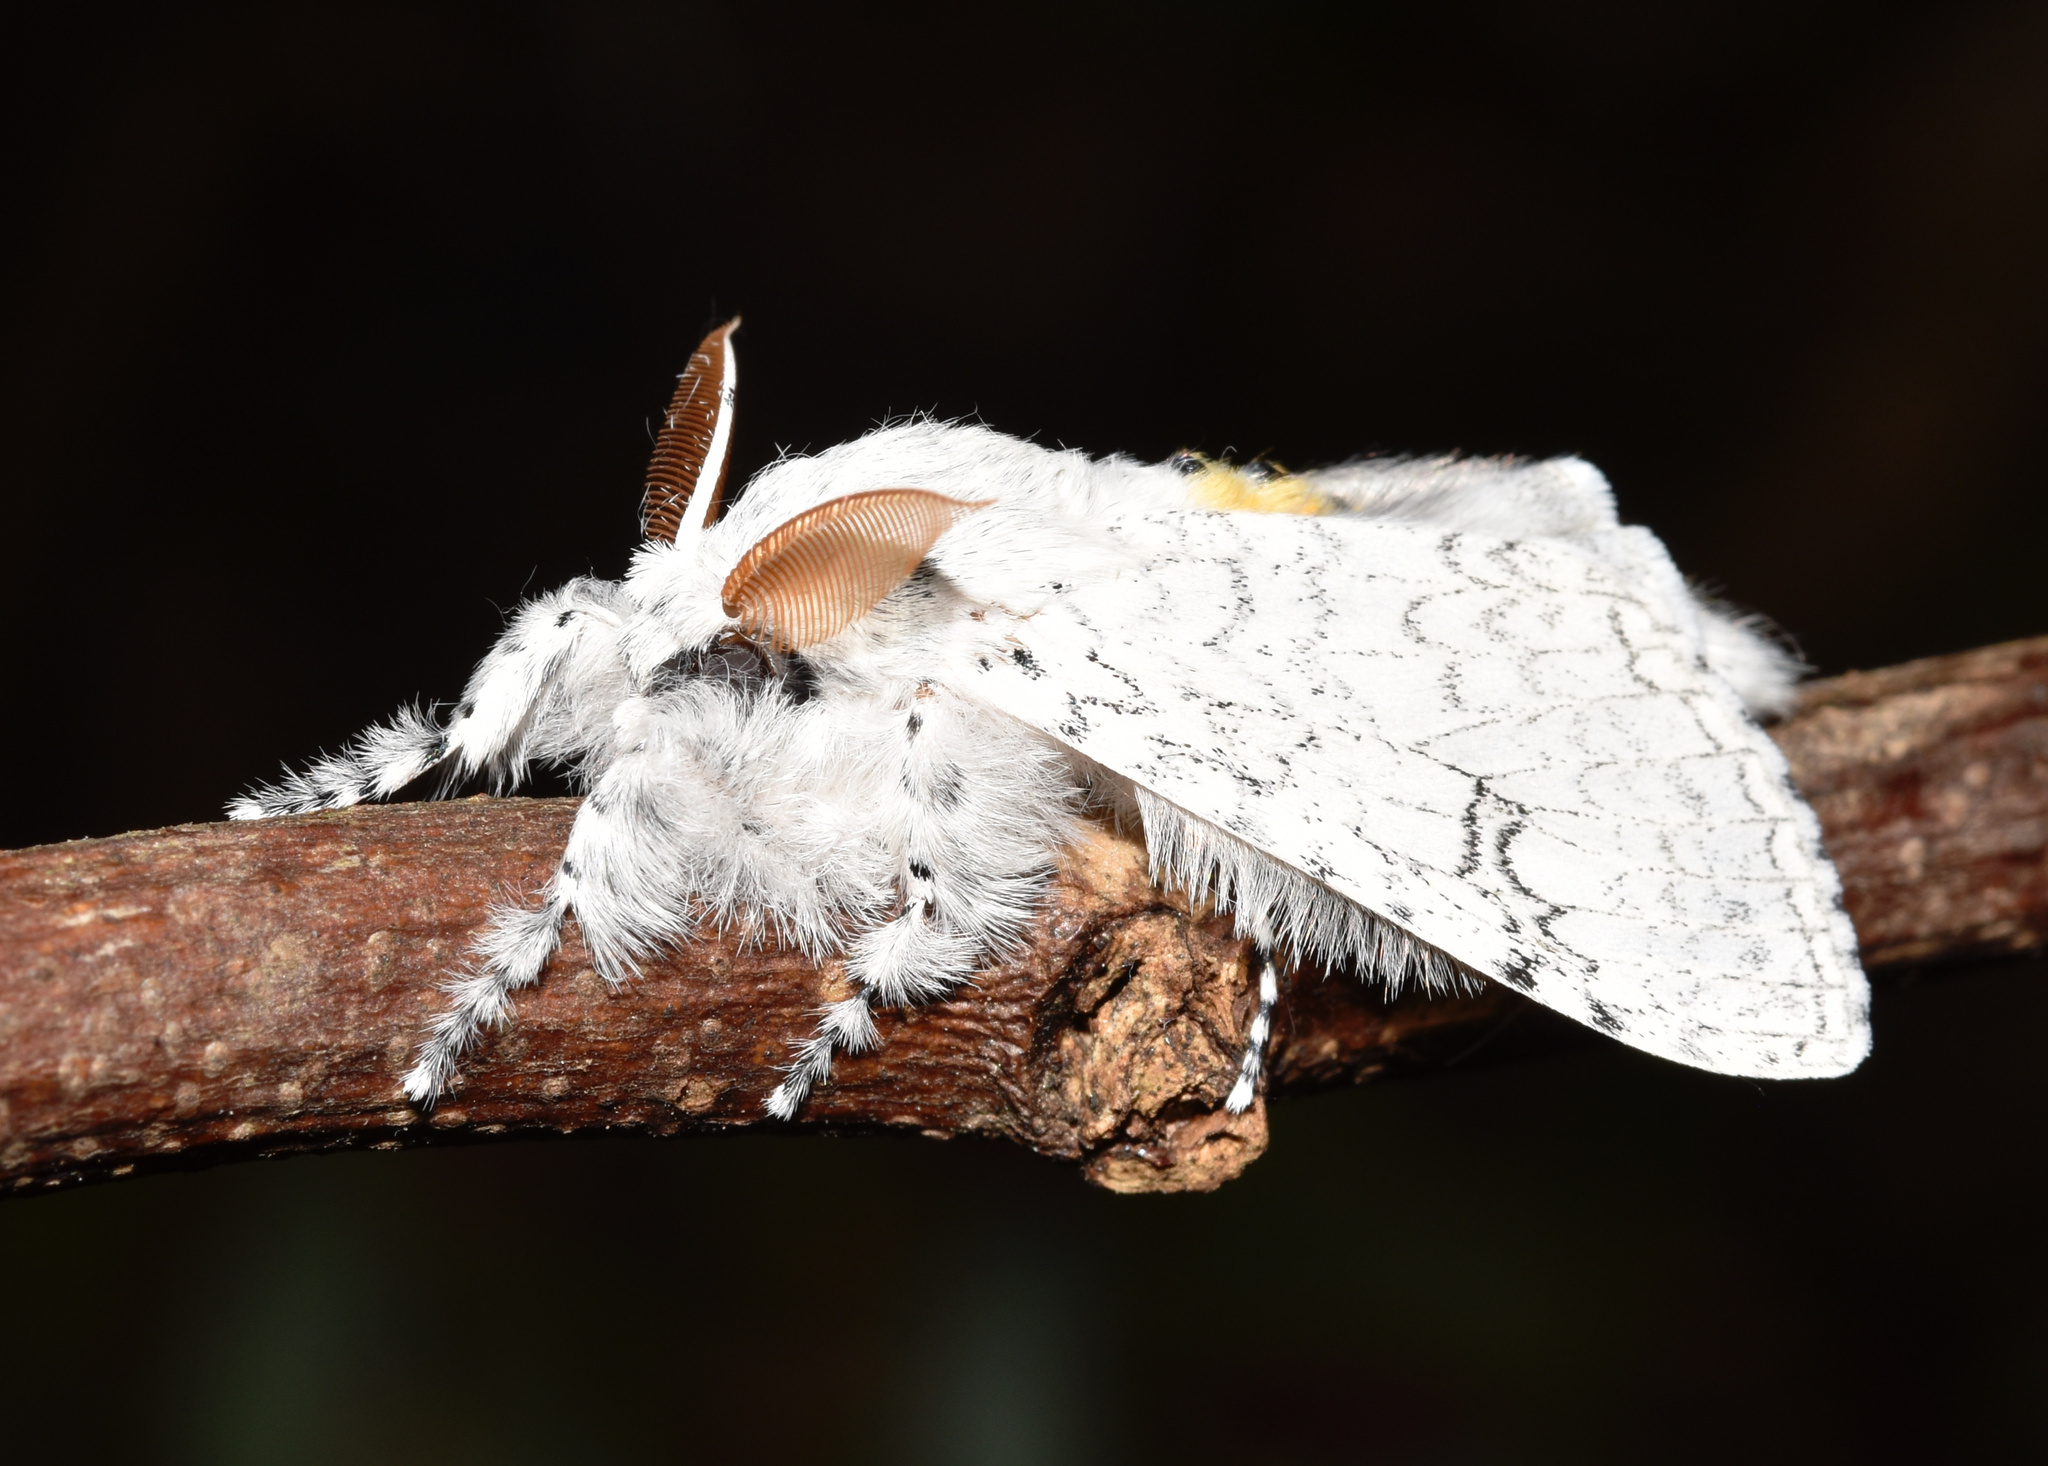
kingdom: Animalia
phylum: Arthropoda
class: Insecta
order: Lepidoptera
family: Erebidae
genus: Dasychira
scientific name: Dasychira georgiana
